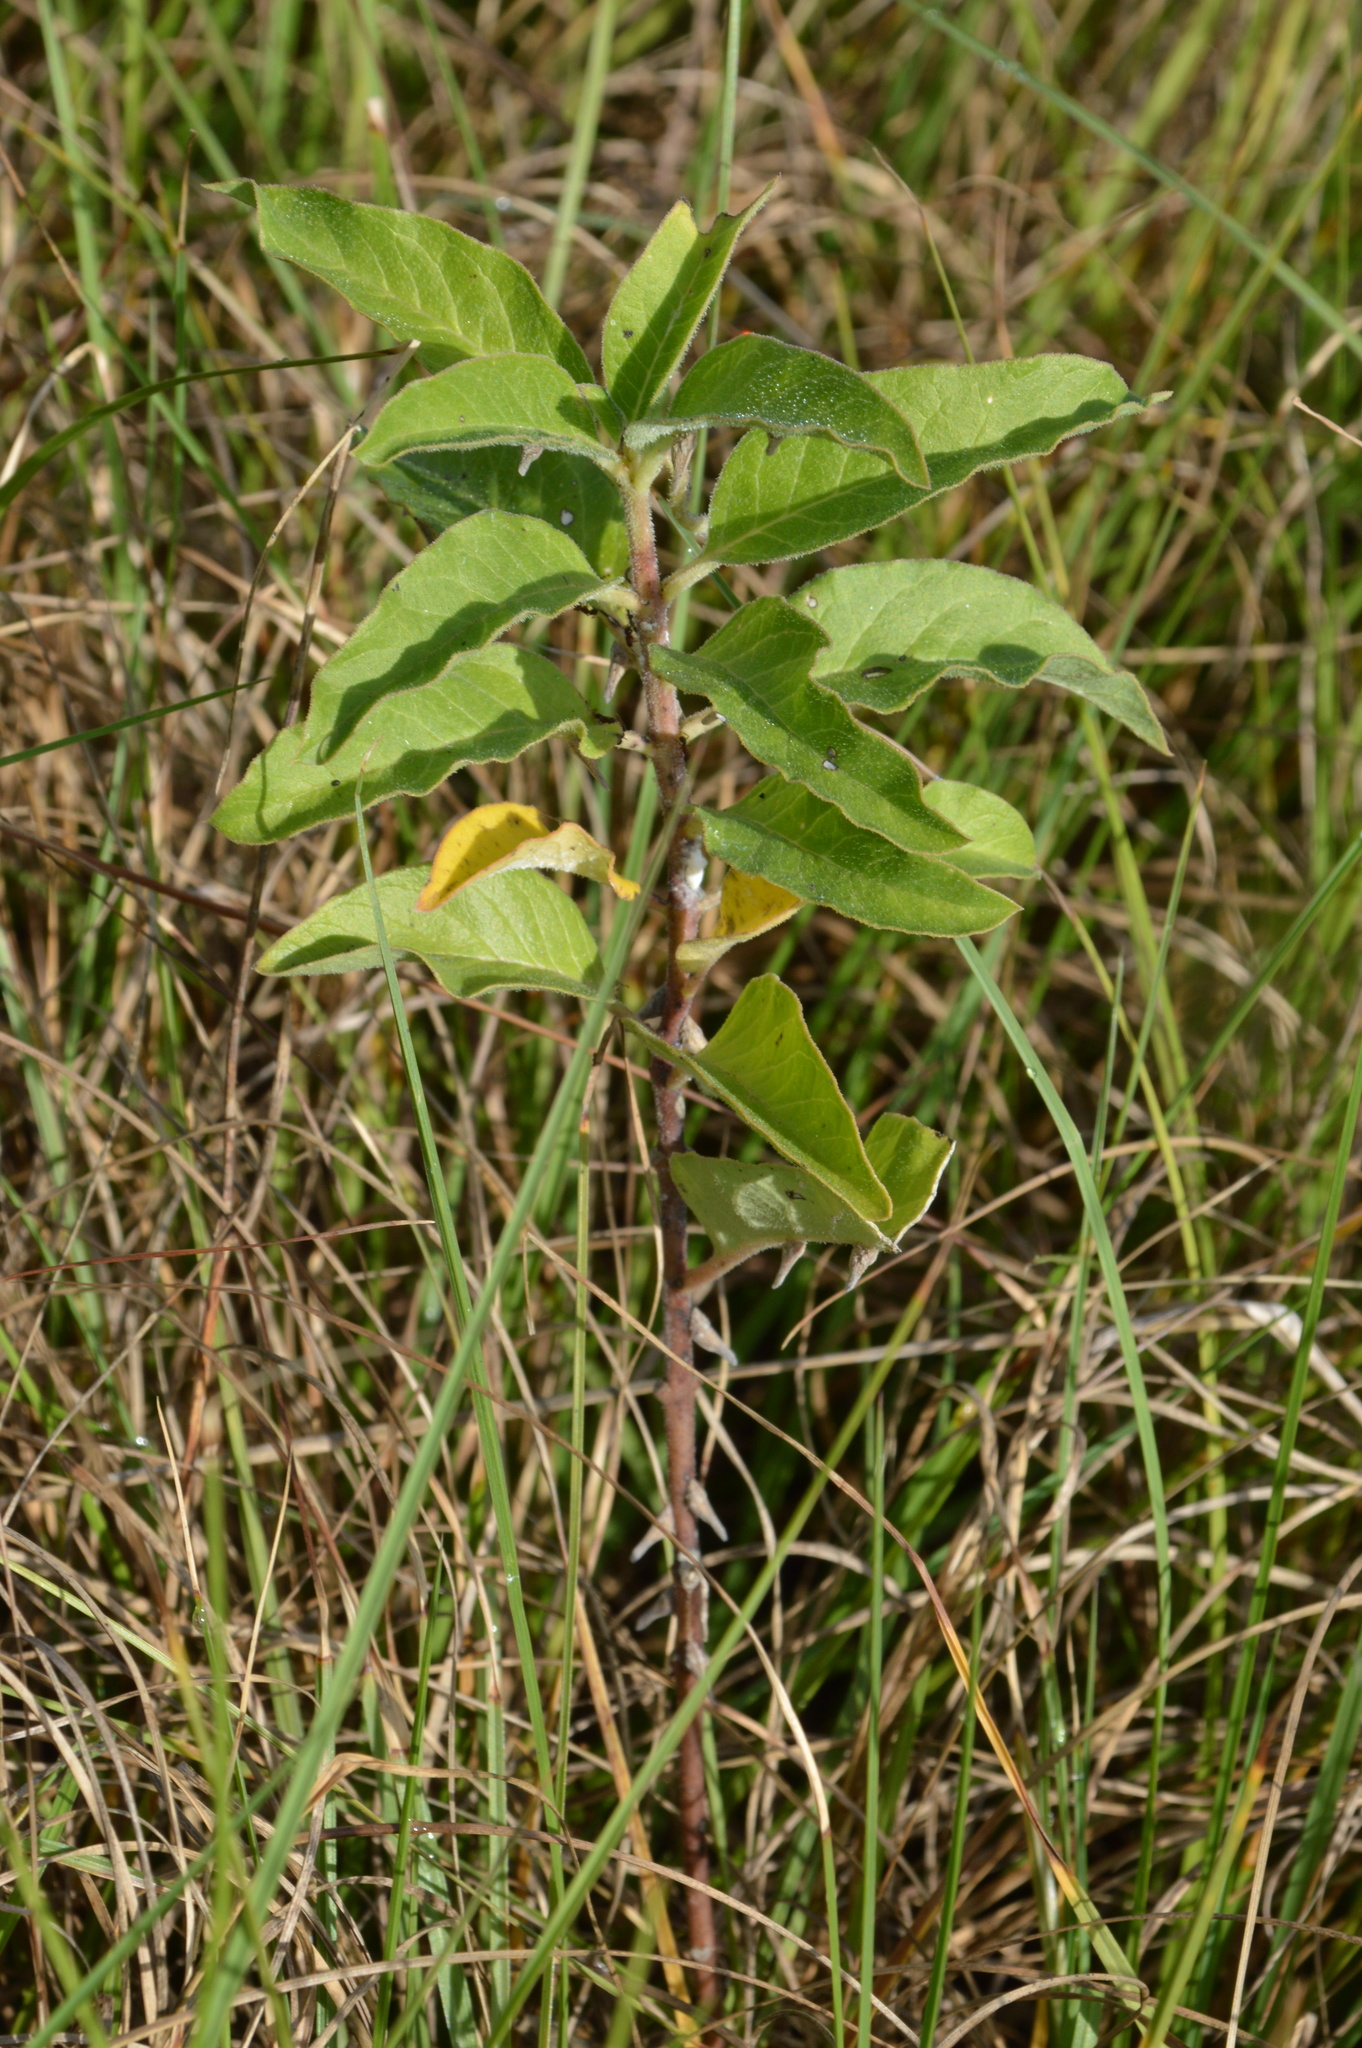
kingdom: Plantae
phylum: Tracheophyta
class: Magnoliopsida
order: Gentianales
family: Apocynaceae
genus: Asclepias
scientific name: Asclepias oenotheroides
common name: Zizotes milkweed
